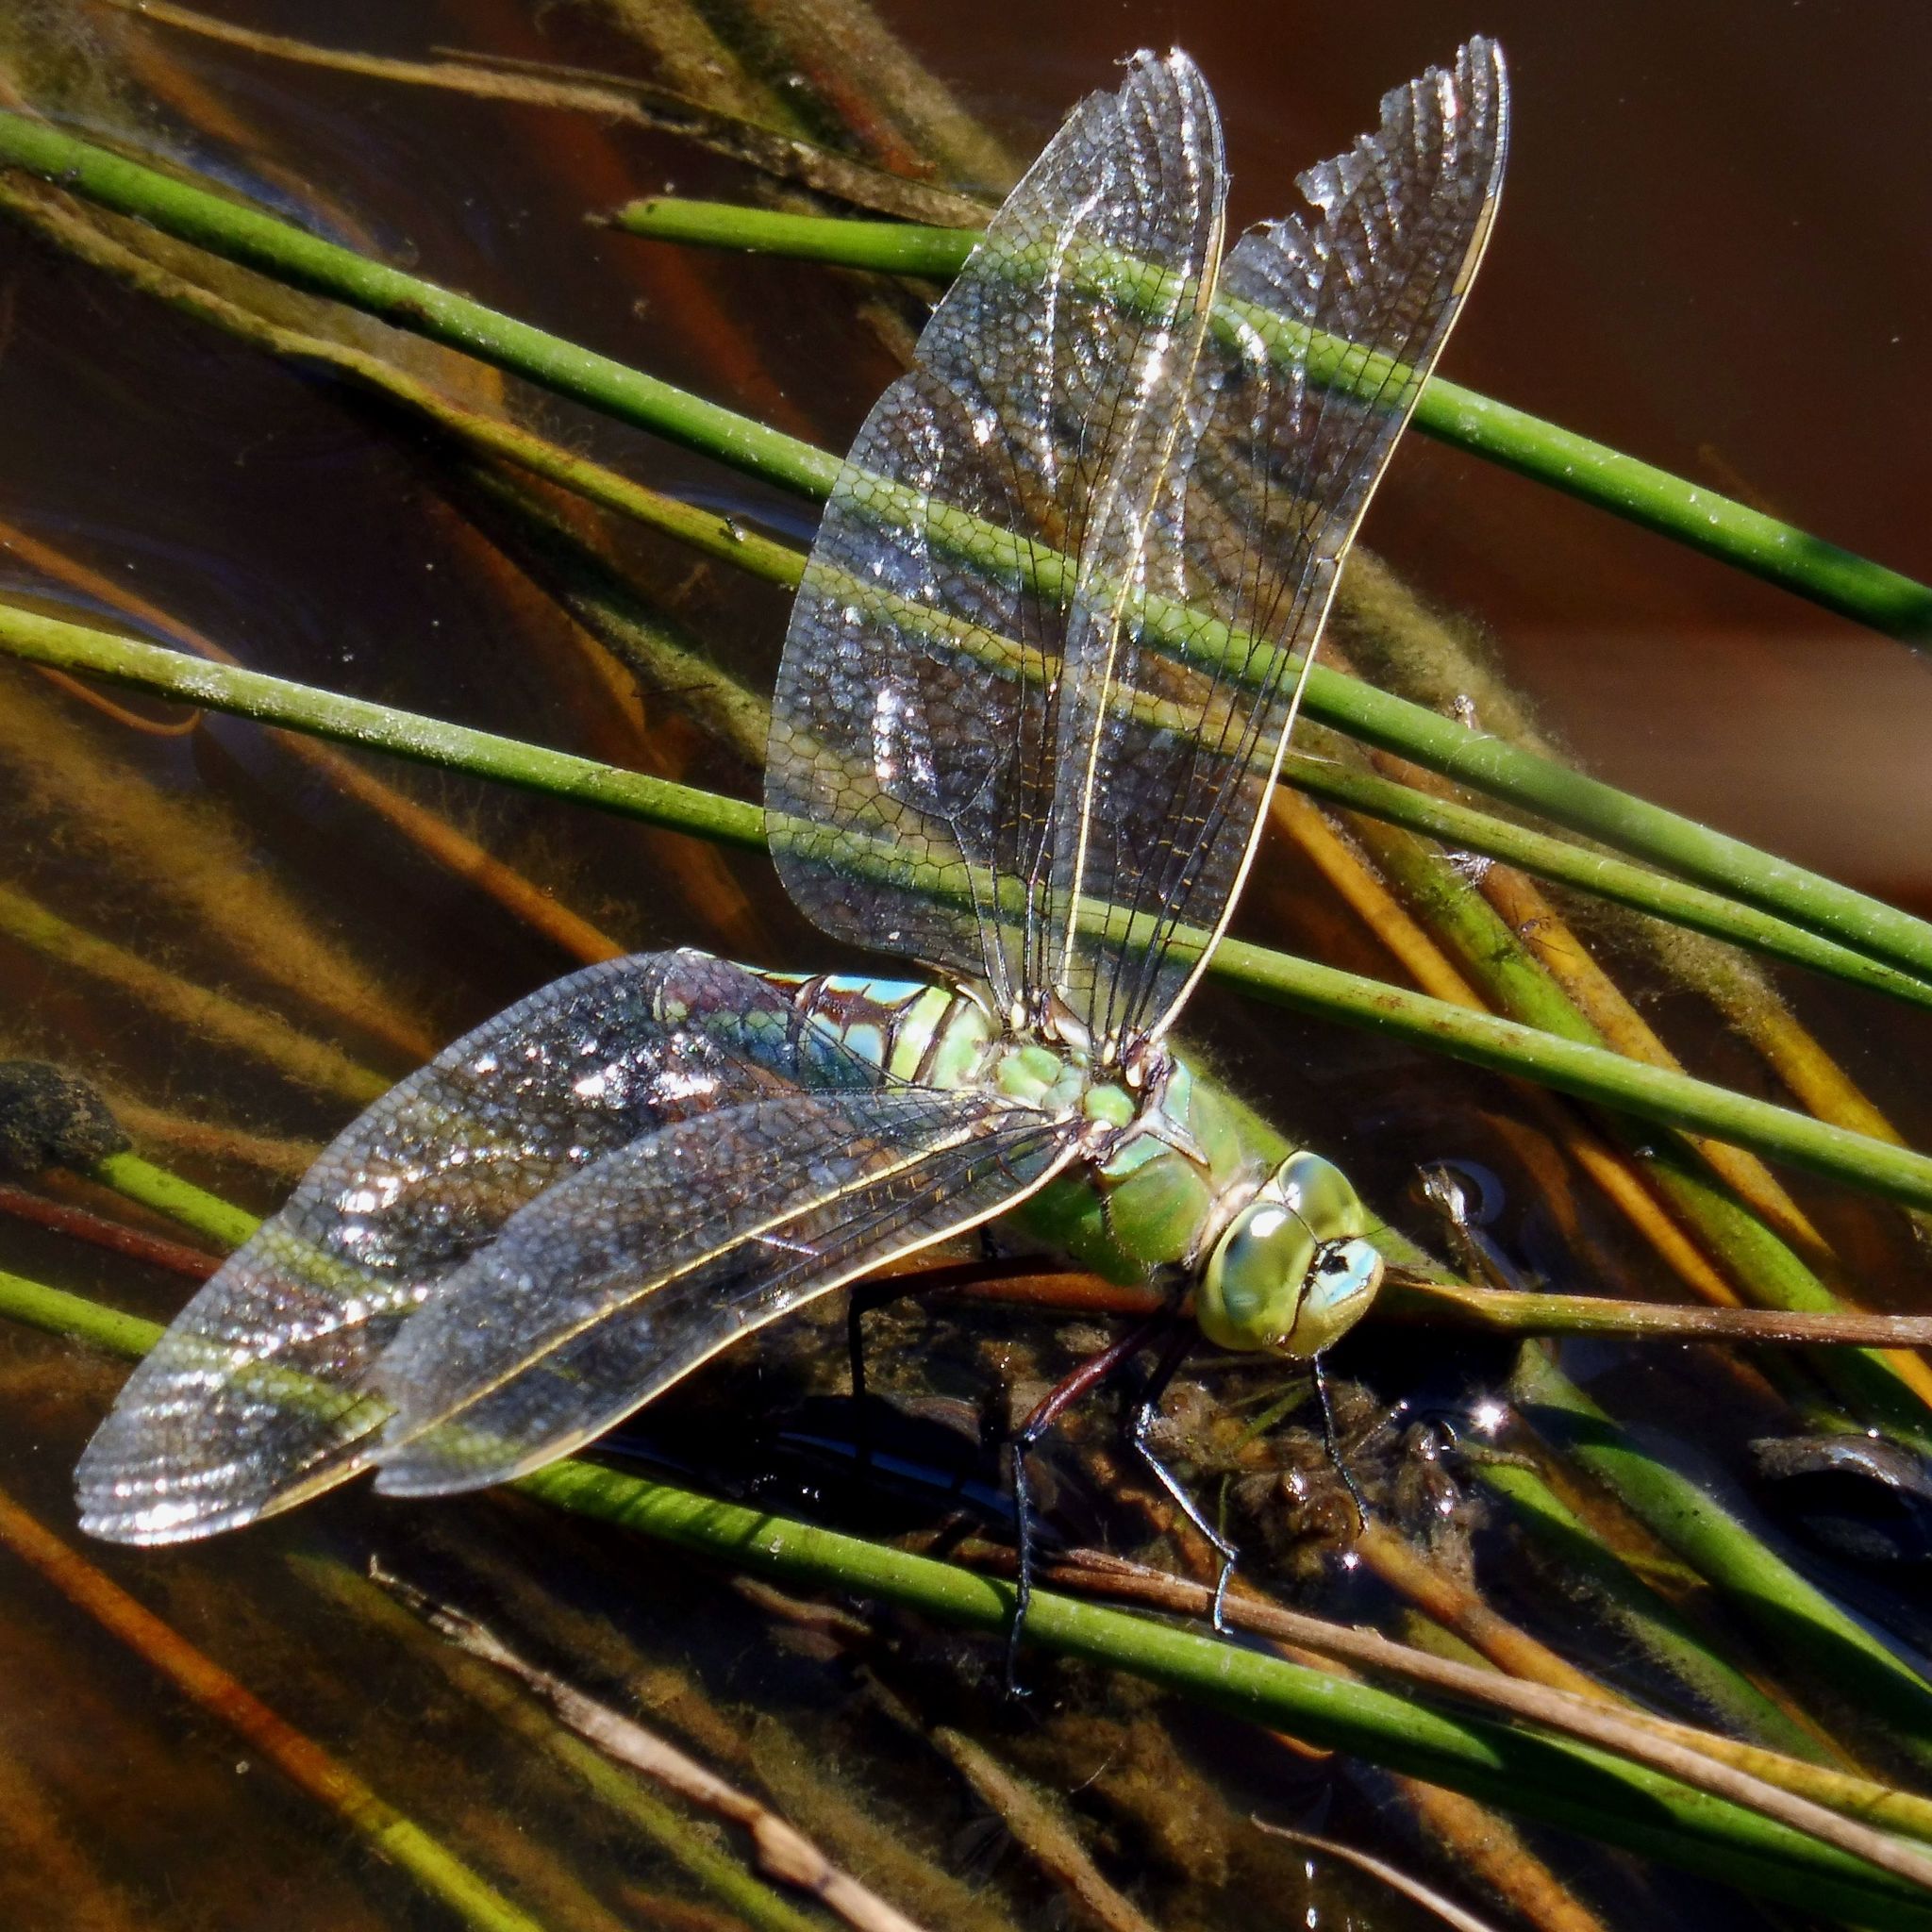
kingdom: Animalia
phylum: Arthropoda
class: Insecta
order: Odonata
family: Aeshnidae
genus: Anax
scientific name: Anax imperator
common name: Emperor dragonfly
